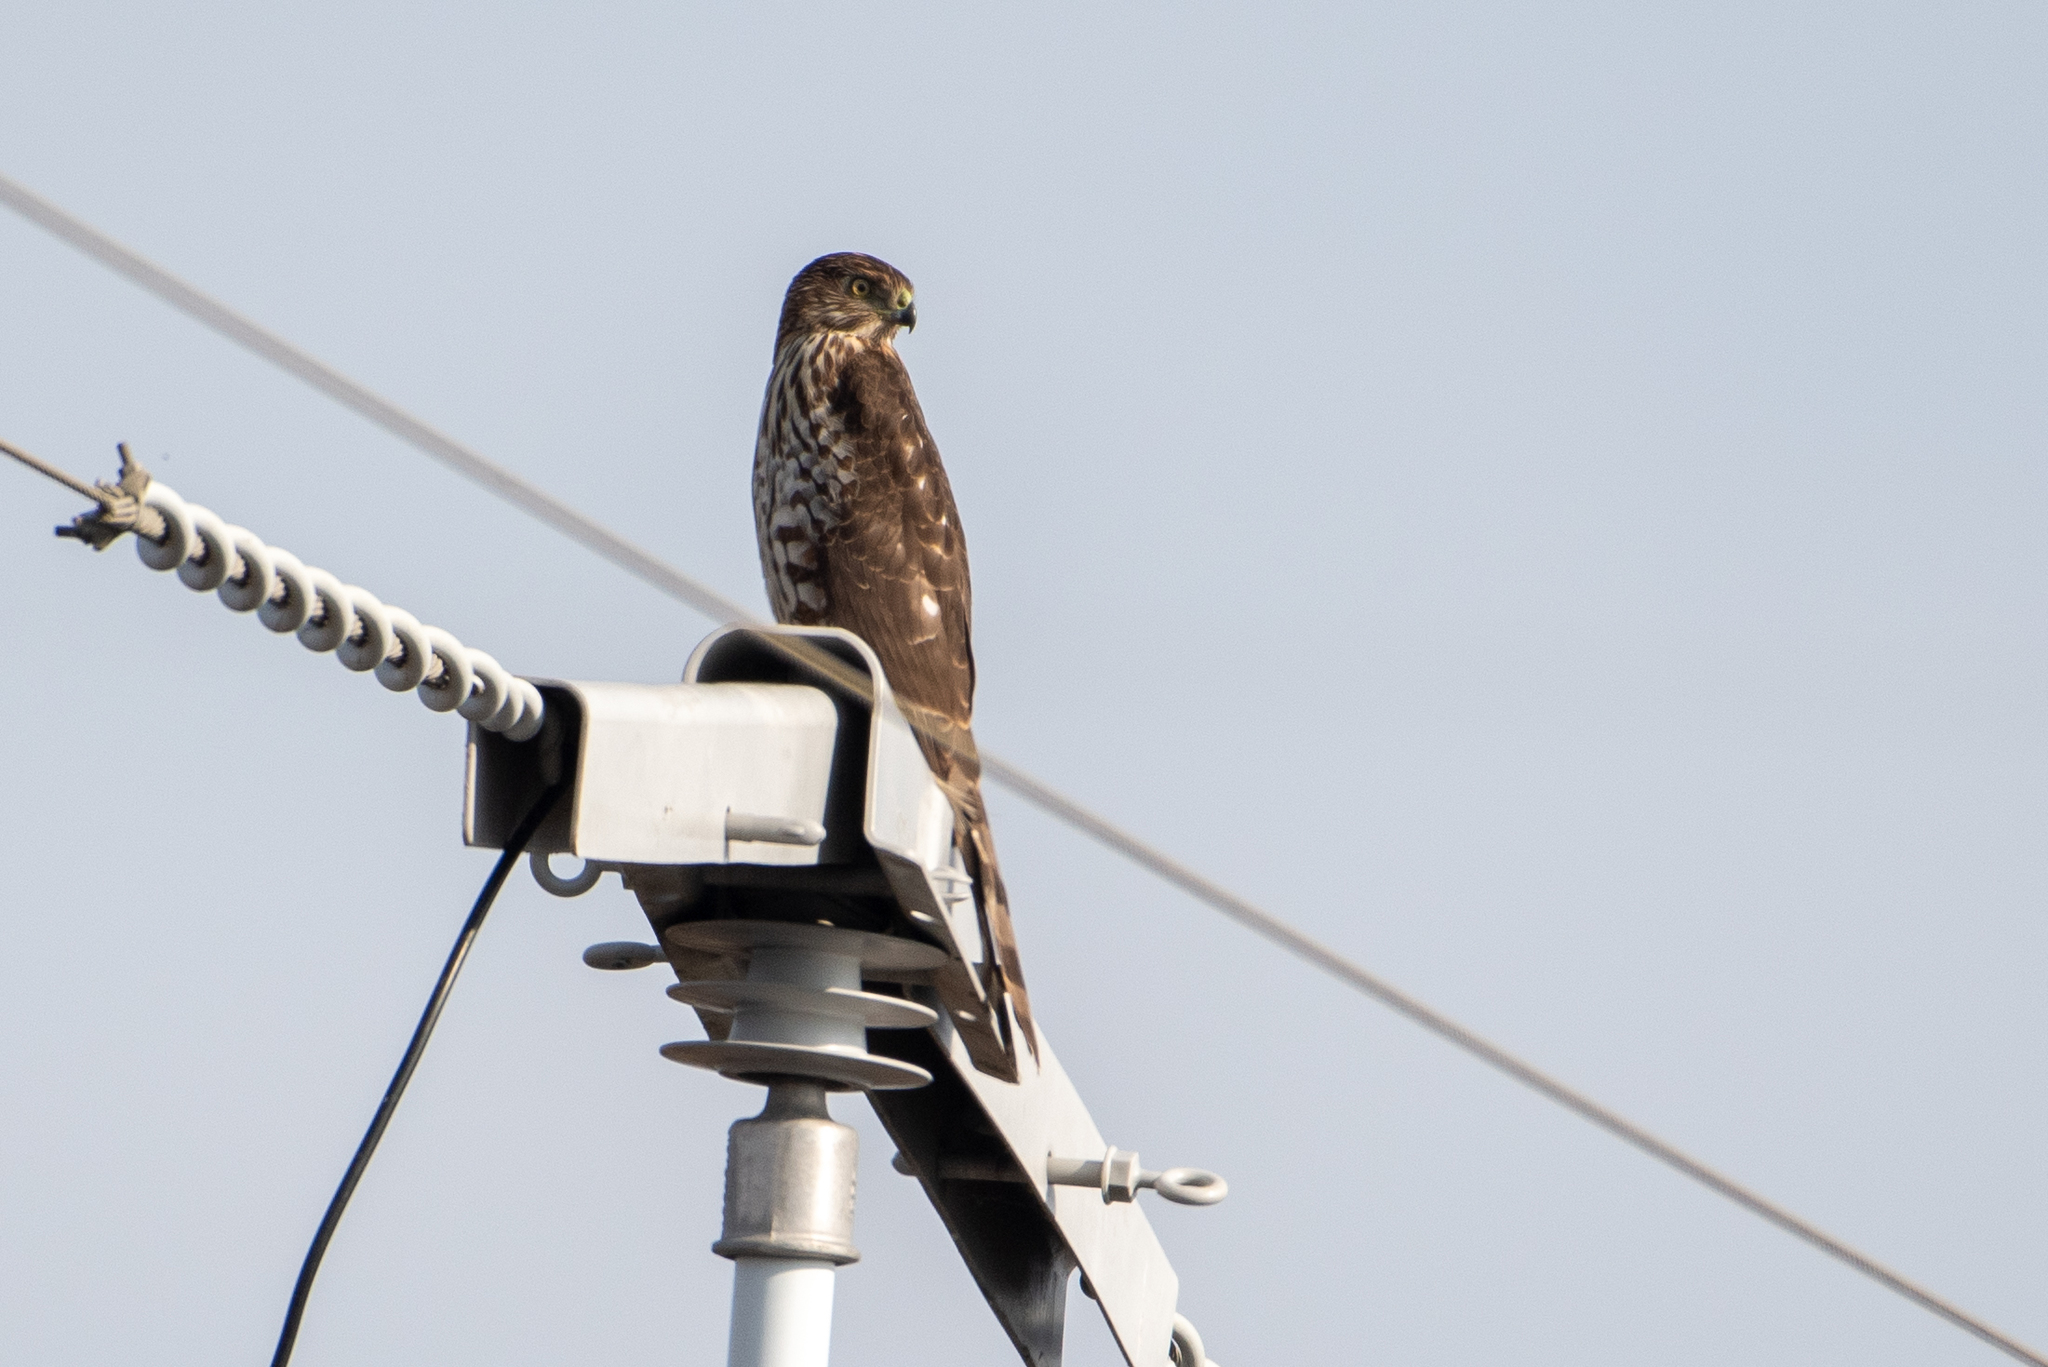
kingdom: Animalia
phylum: Chordata
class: Aves
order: Accipitriformes
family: Accipitridae
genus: Accipiter
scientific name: Accipiter cooperii
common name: Cooper's hawk
